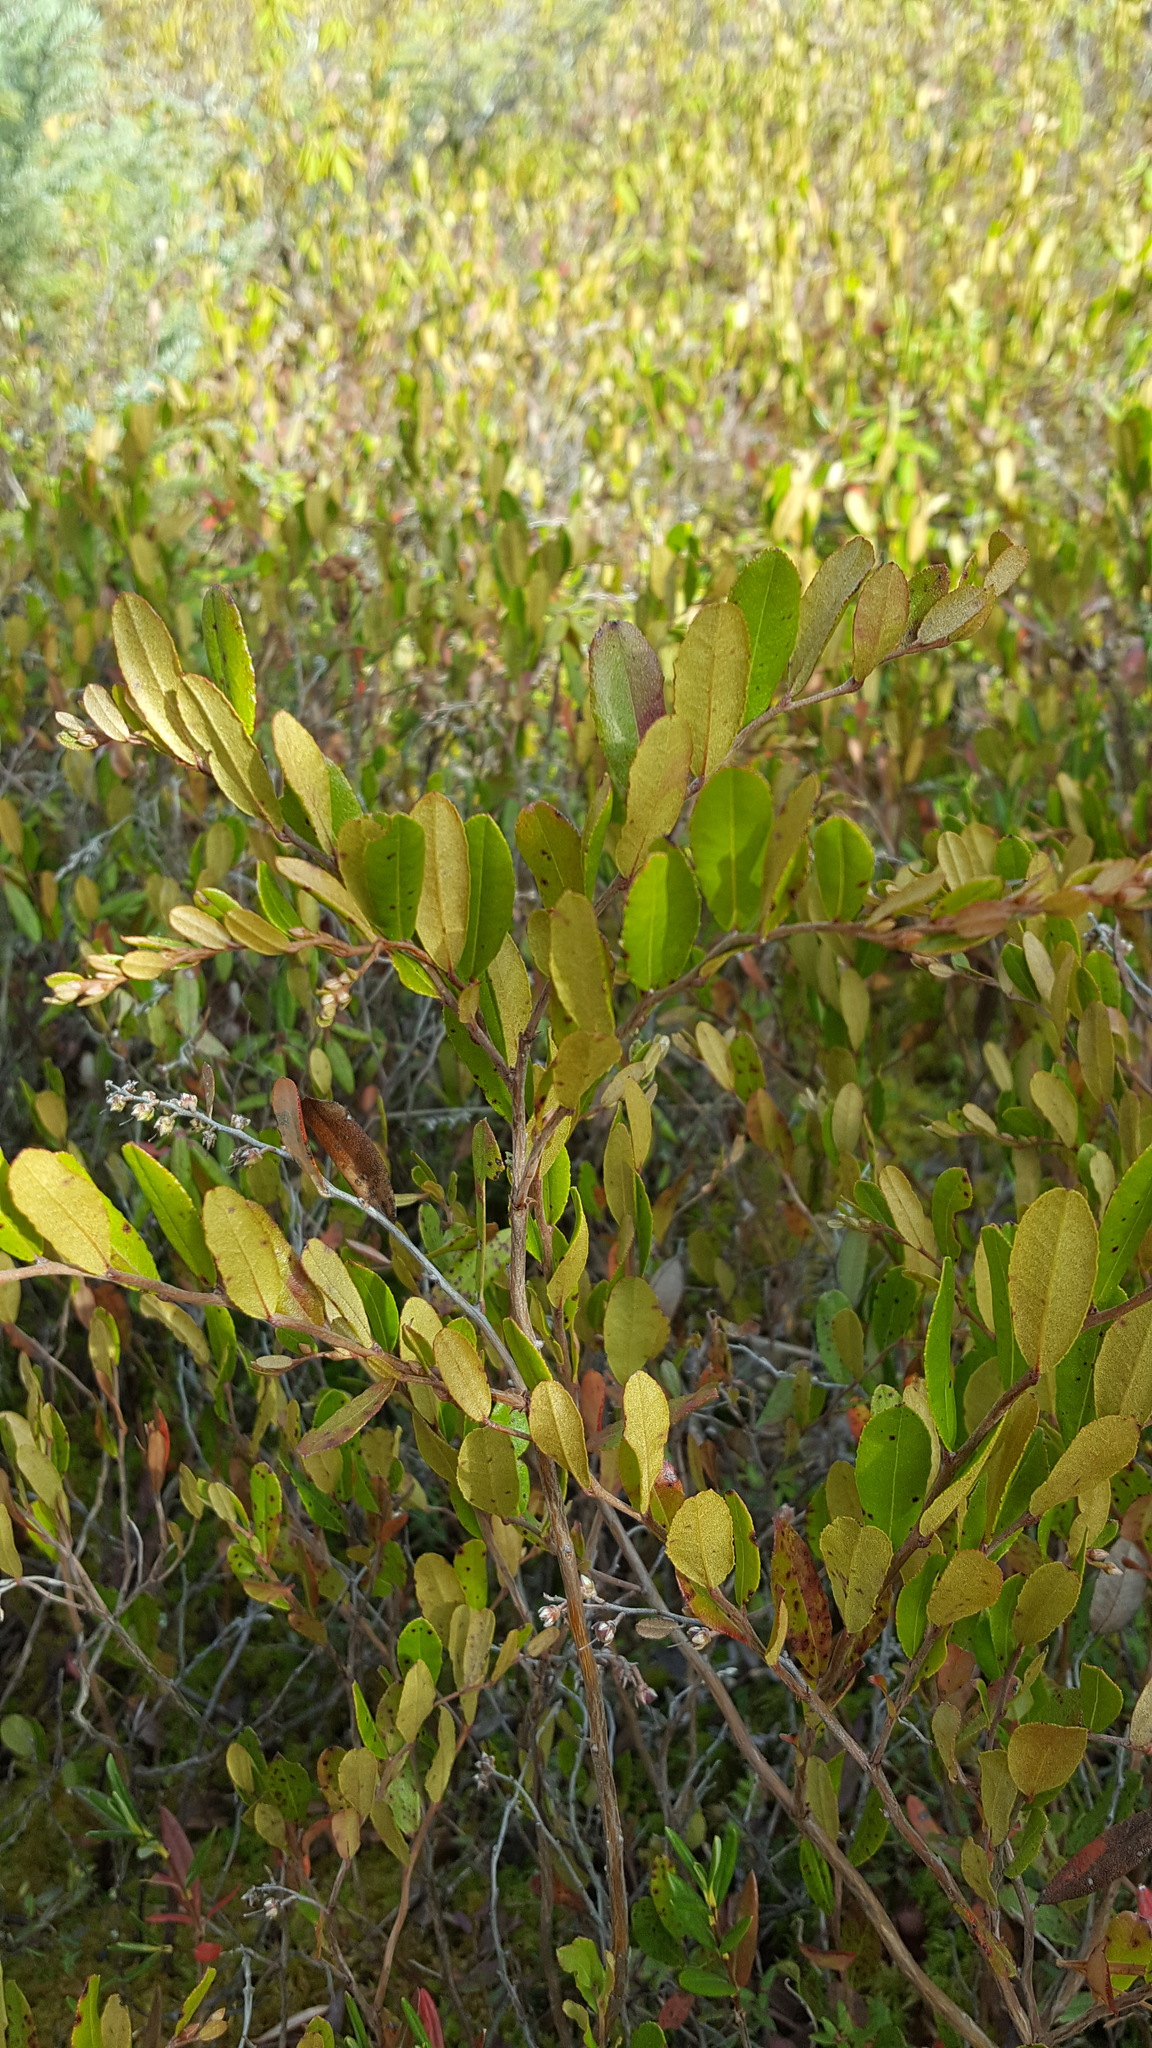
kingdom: Plantae
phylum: Tracheophyta
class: Magnoliopsida
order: Ericales
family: Ericaceae
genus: Chamaedaphne
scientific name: Chamaedaphne calyculata
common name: Leatherleaf
